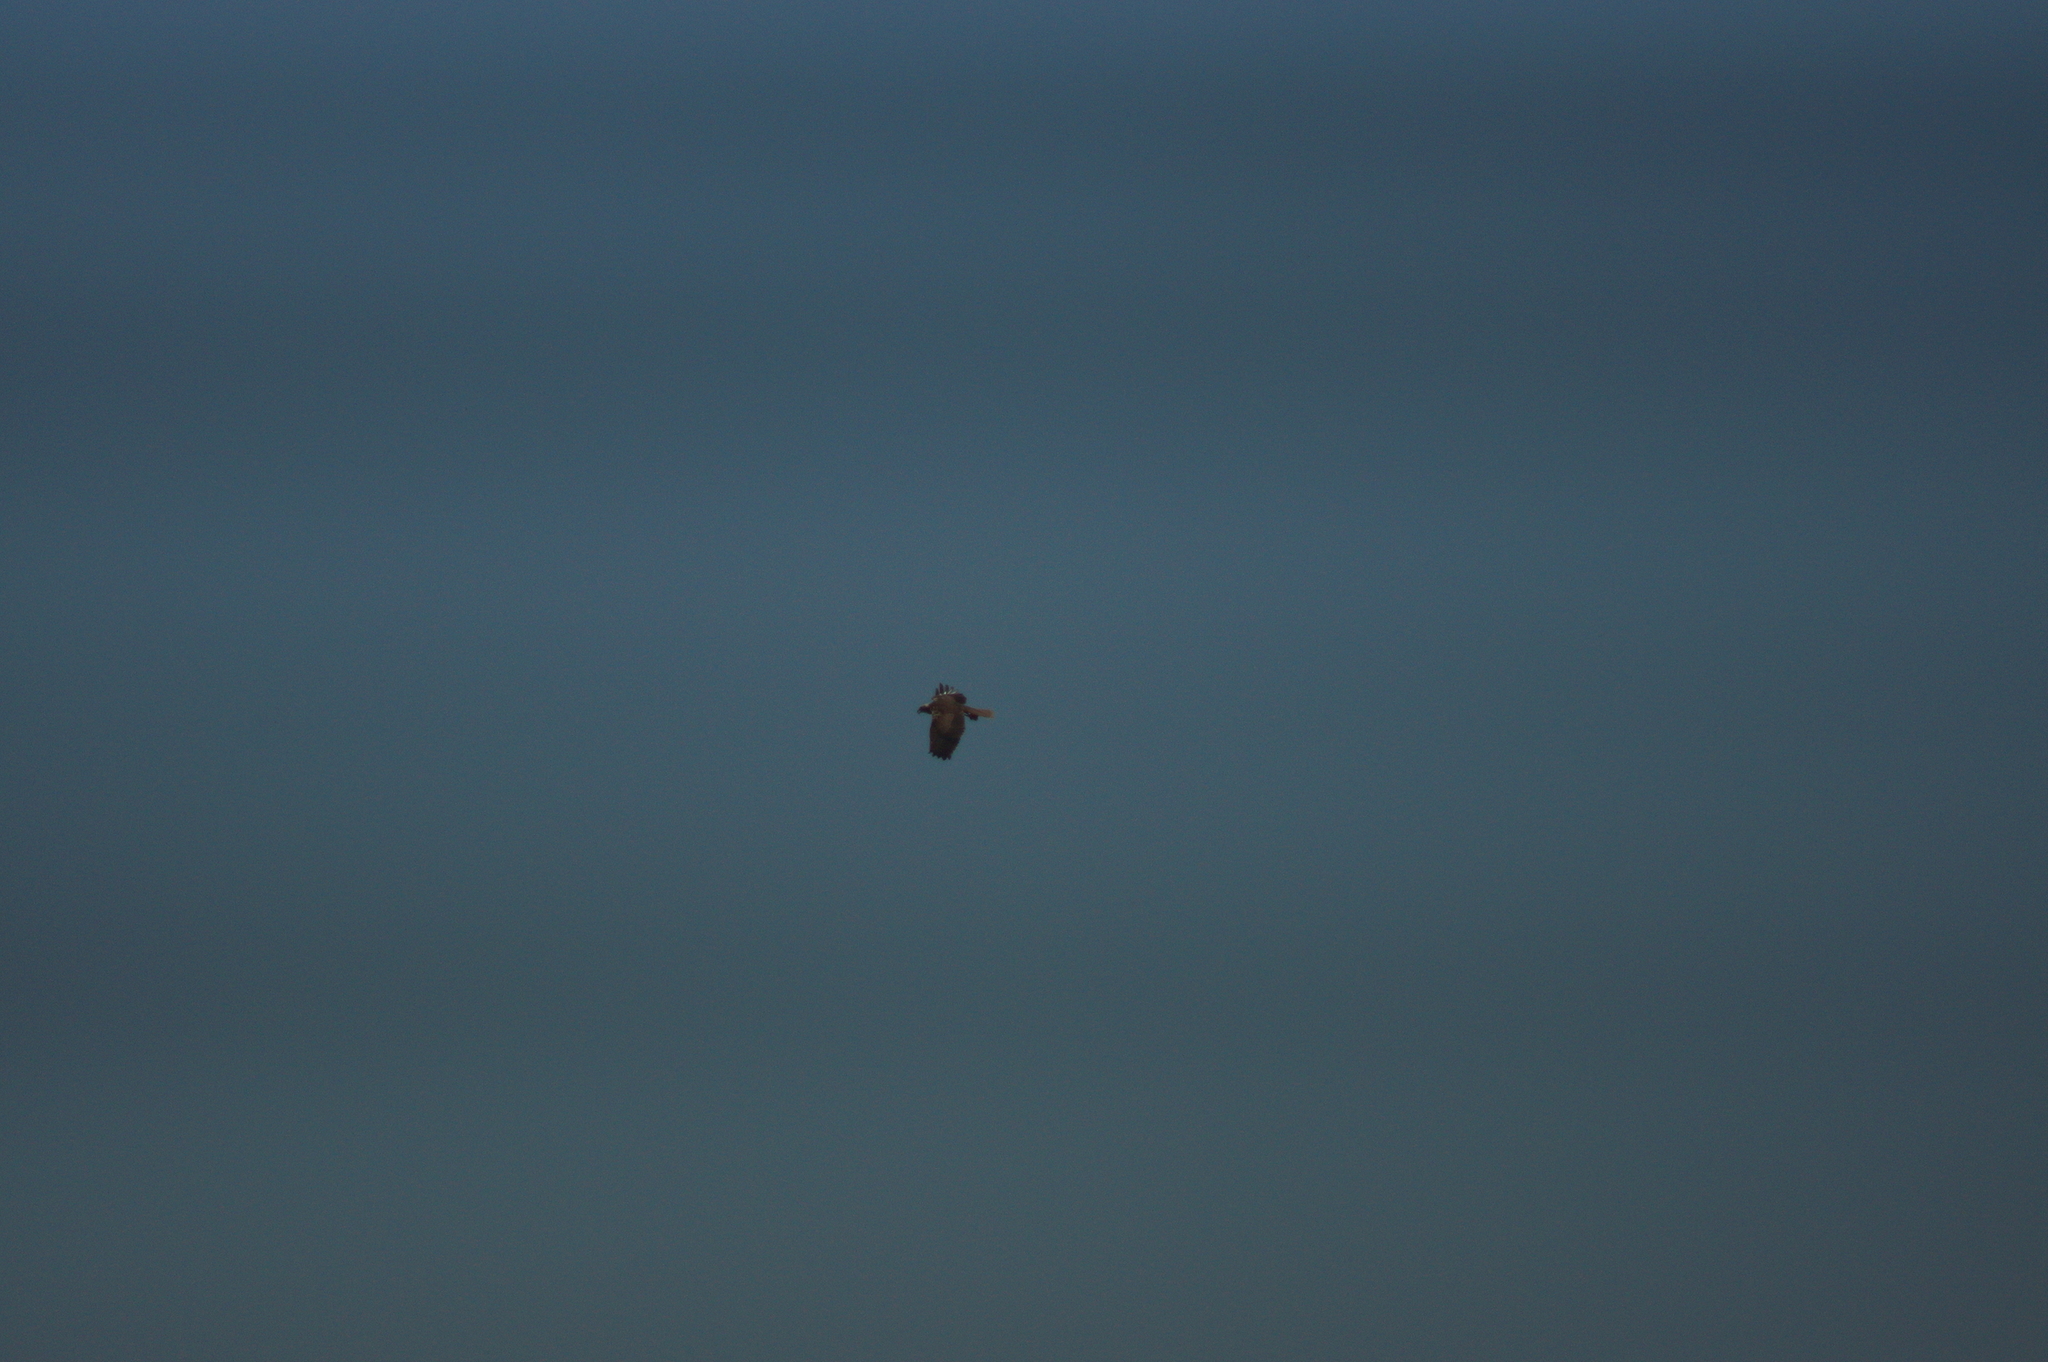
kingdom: Animalia
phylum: Chordata
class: Aves
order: Accipitriformes
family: Accipitridae
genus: Circus
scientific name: Circus aeruginosus
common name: Western marsh harrier
